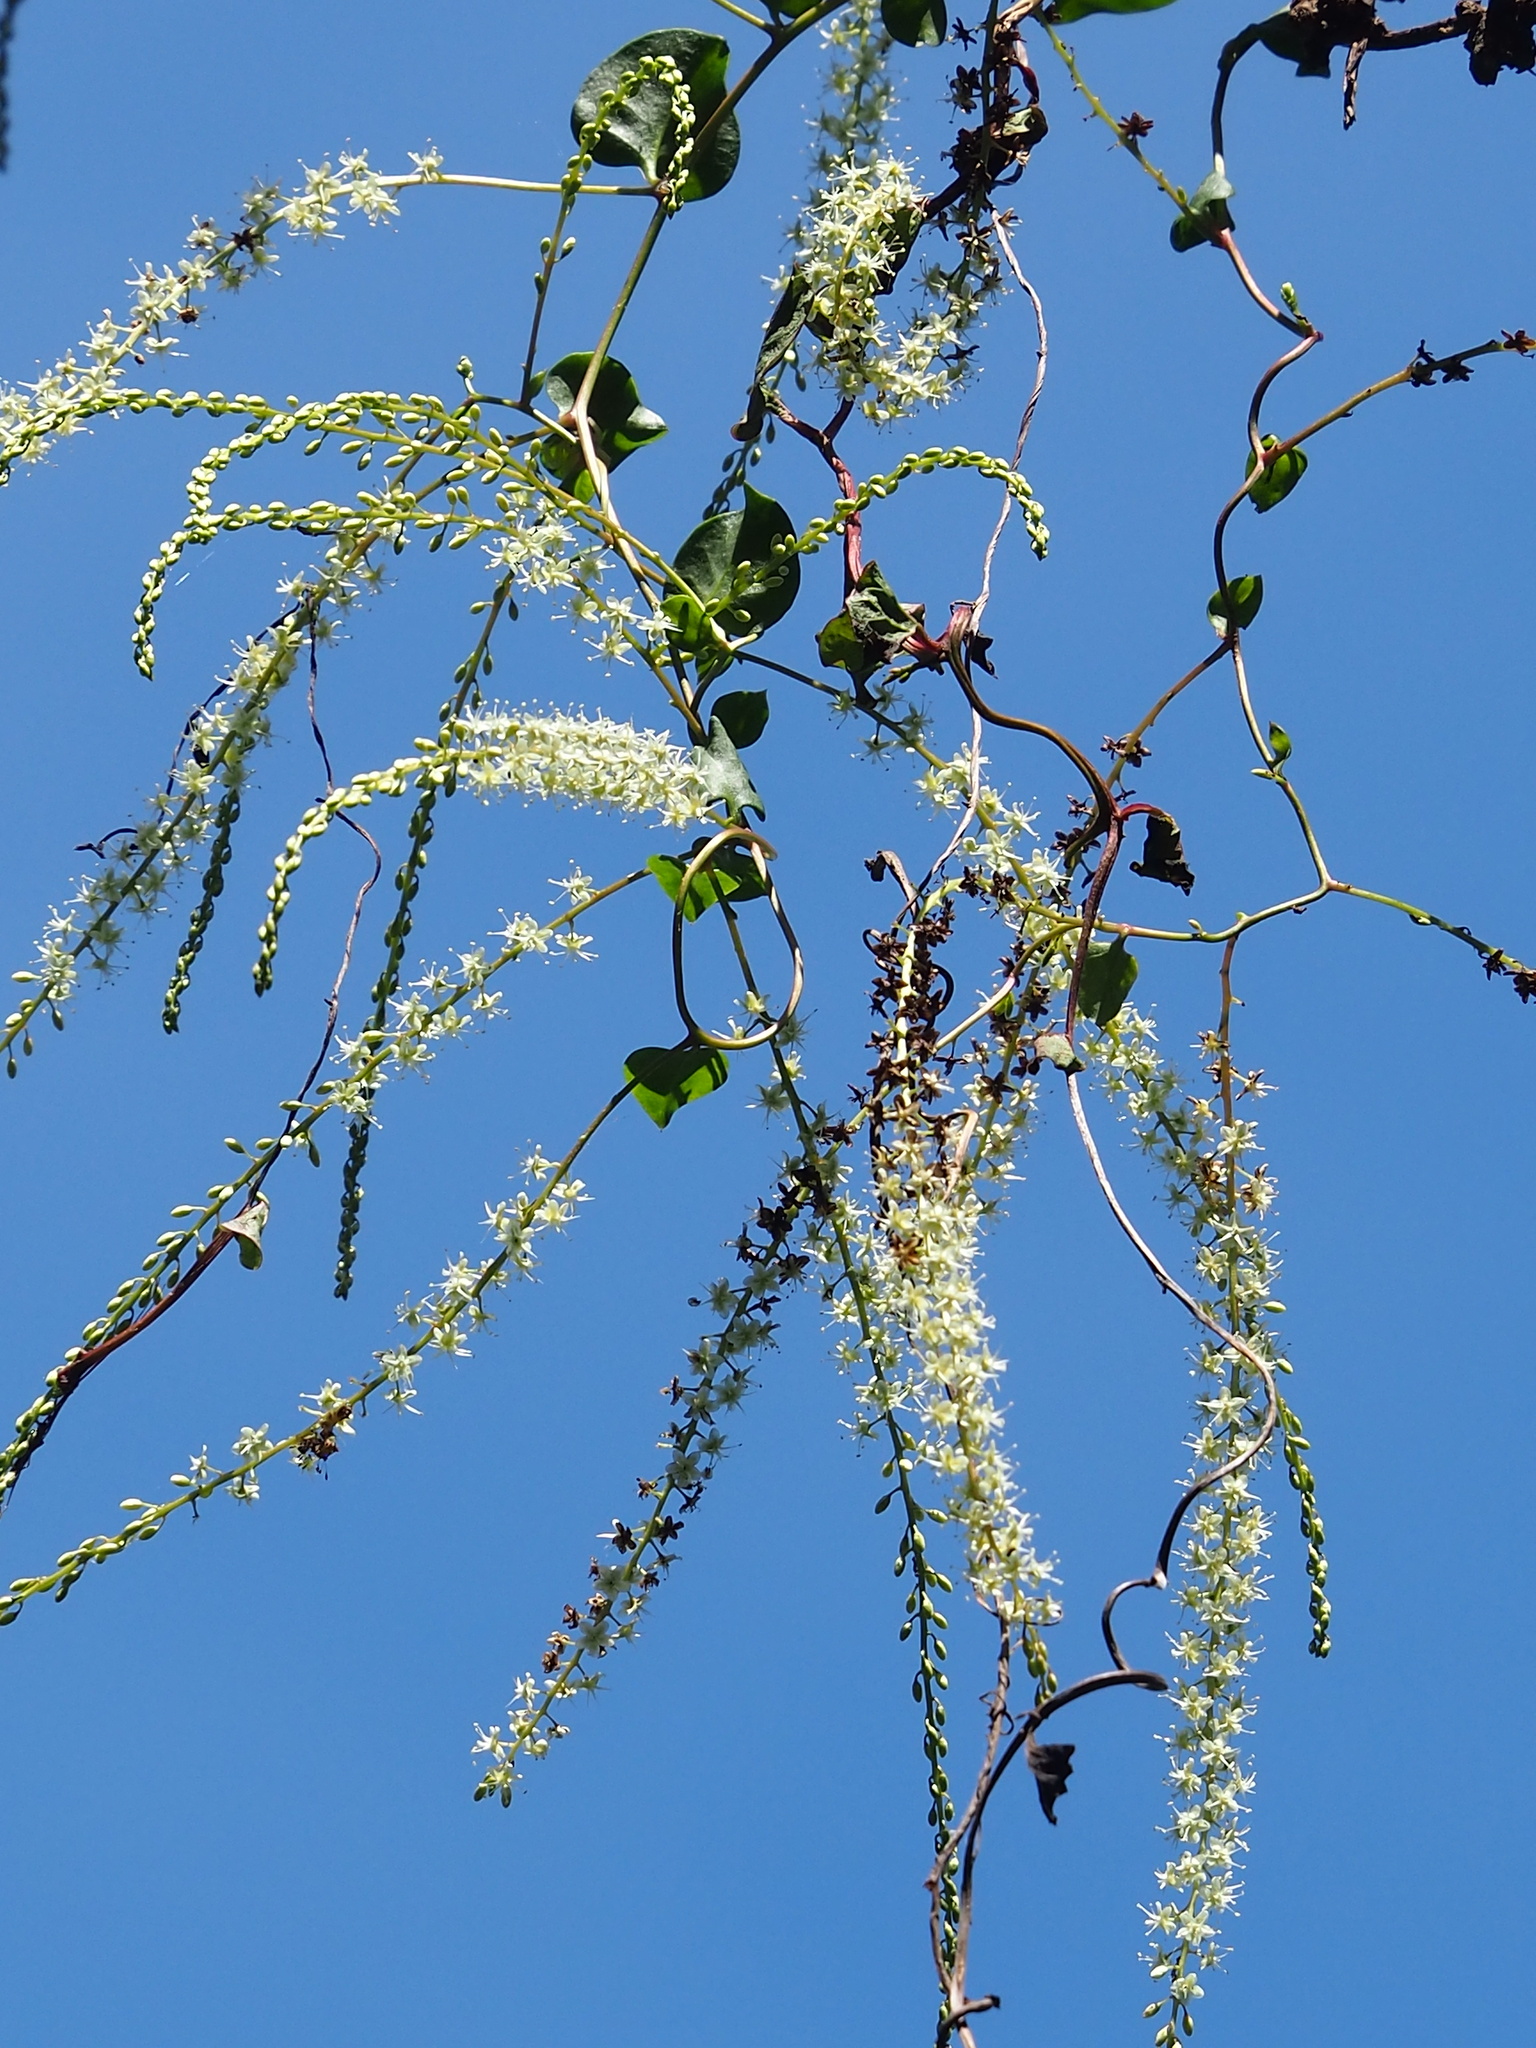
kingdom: Plantae
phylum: Tracheophyta
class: Magnoliopsida
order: Caryophyllales
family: Basellaceae
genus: Anredera
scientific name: Anredera cordifolia
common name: Heartleaf madeiravine
